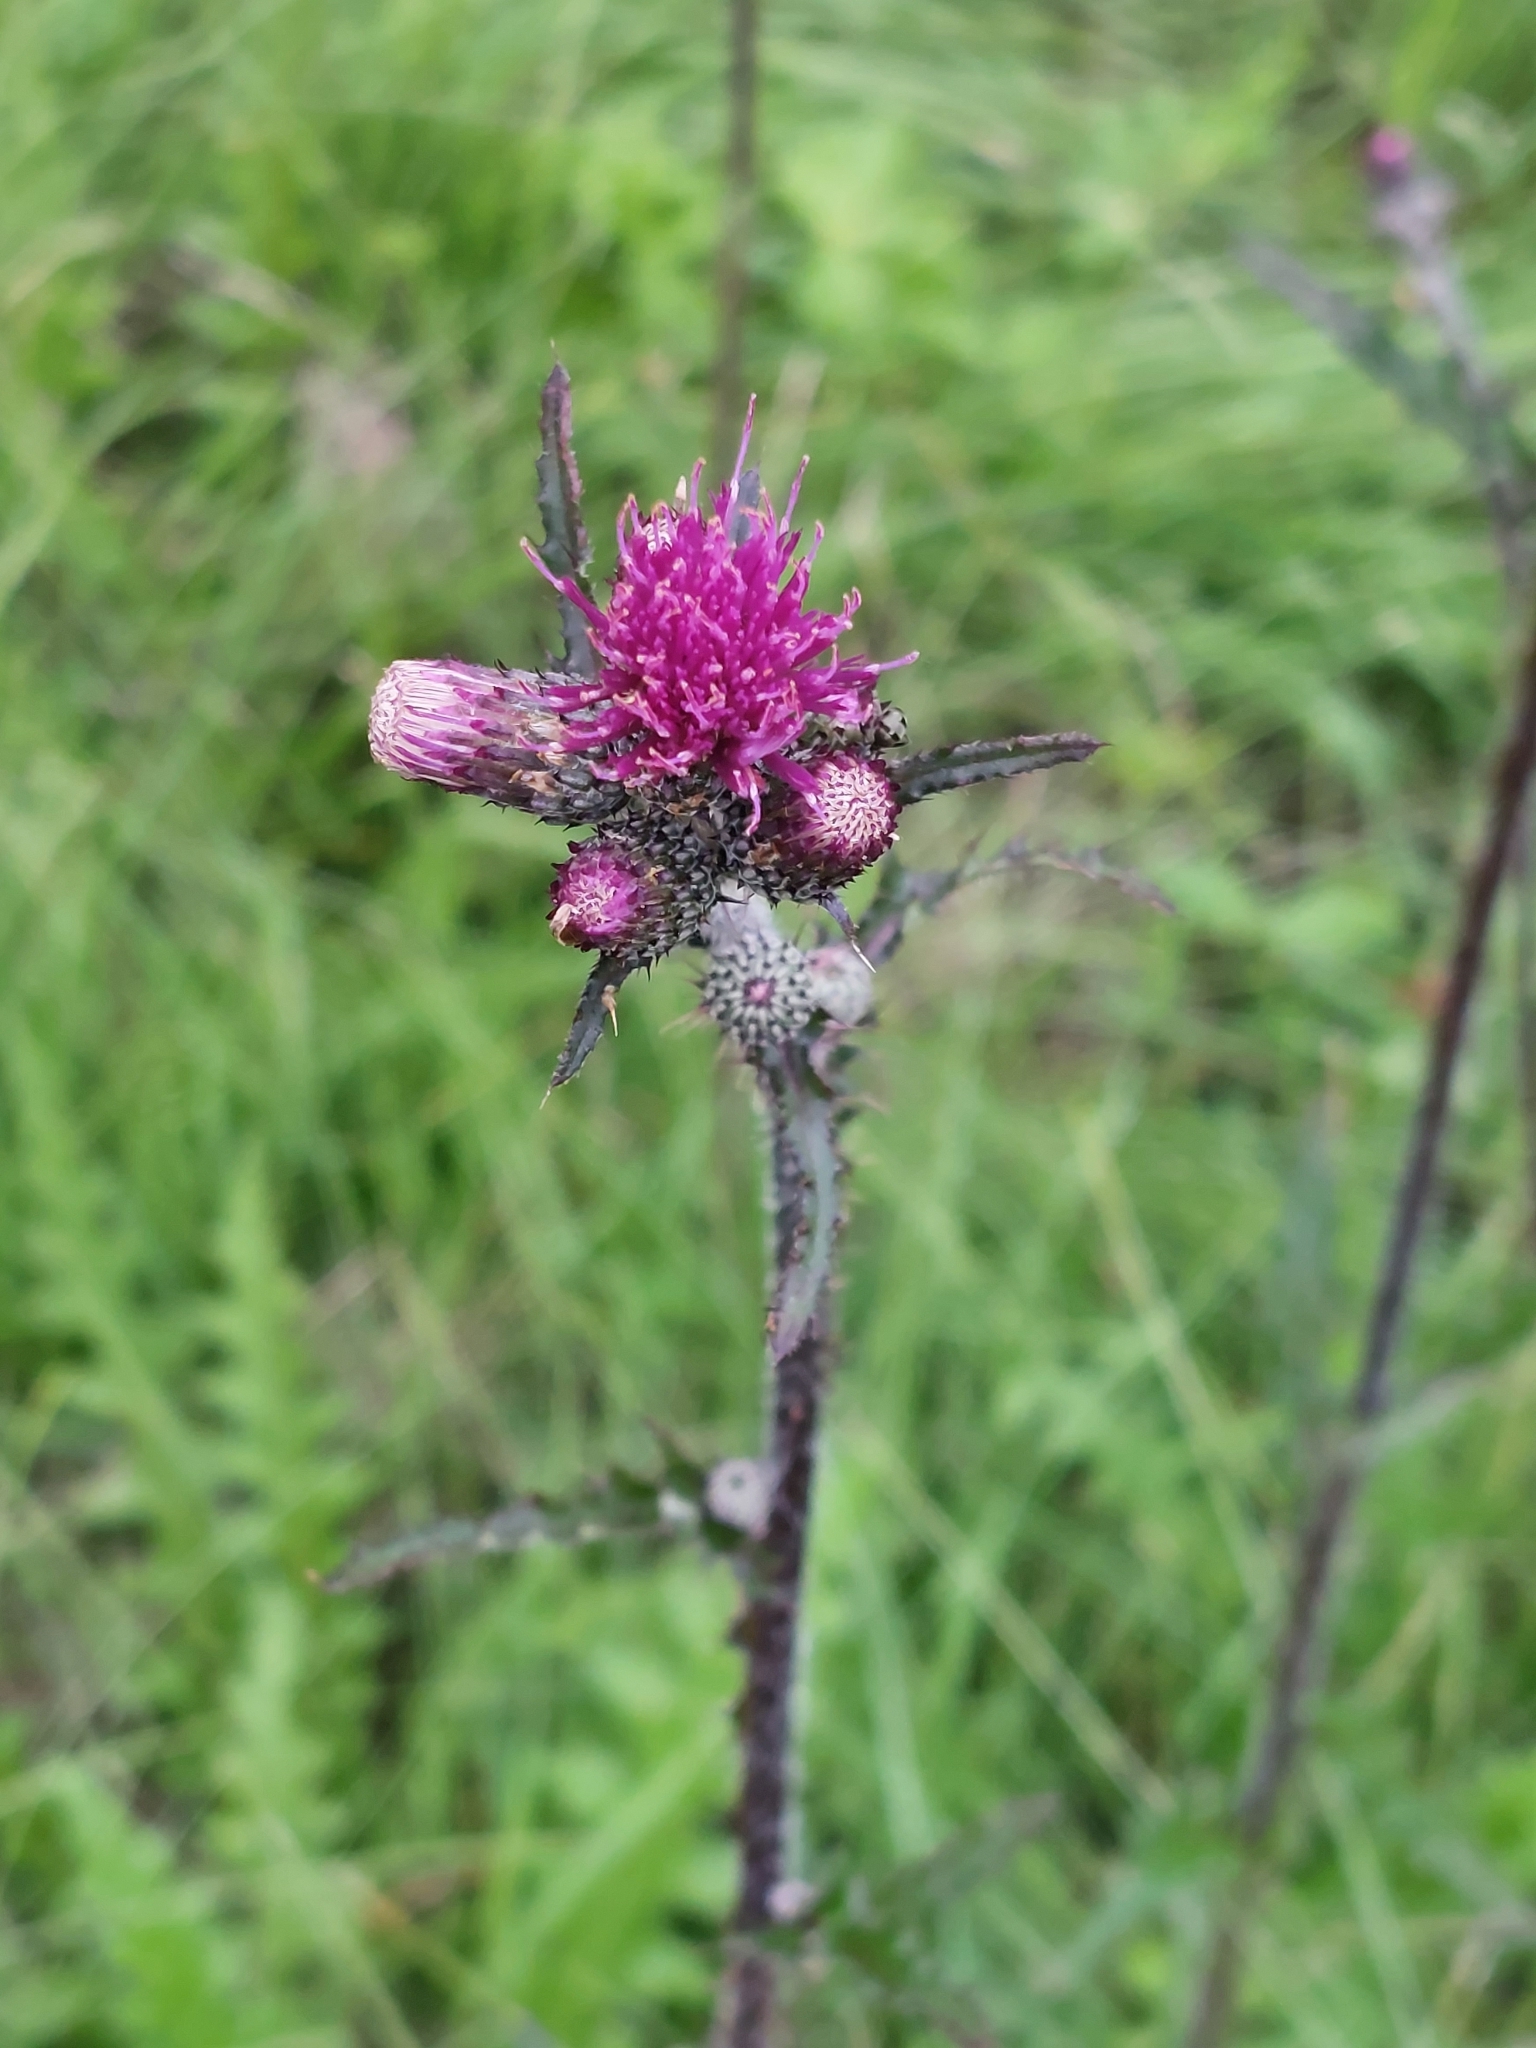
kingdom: Plantae
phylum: Tracheophyta
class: Magnoliopsida
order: Asterales
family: Asteraceae
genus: Cirsium
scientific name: Cirsium palustre
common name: Marsh thistle
